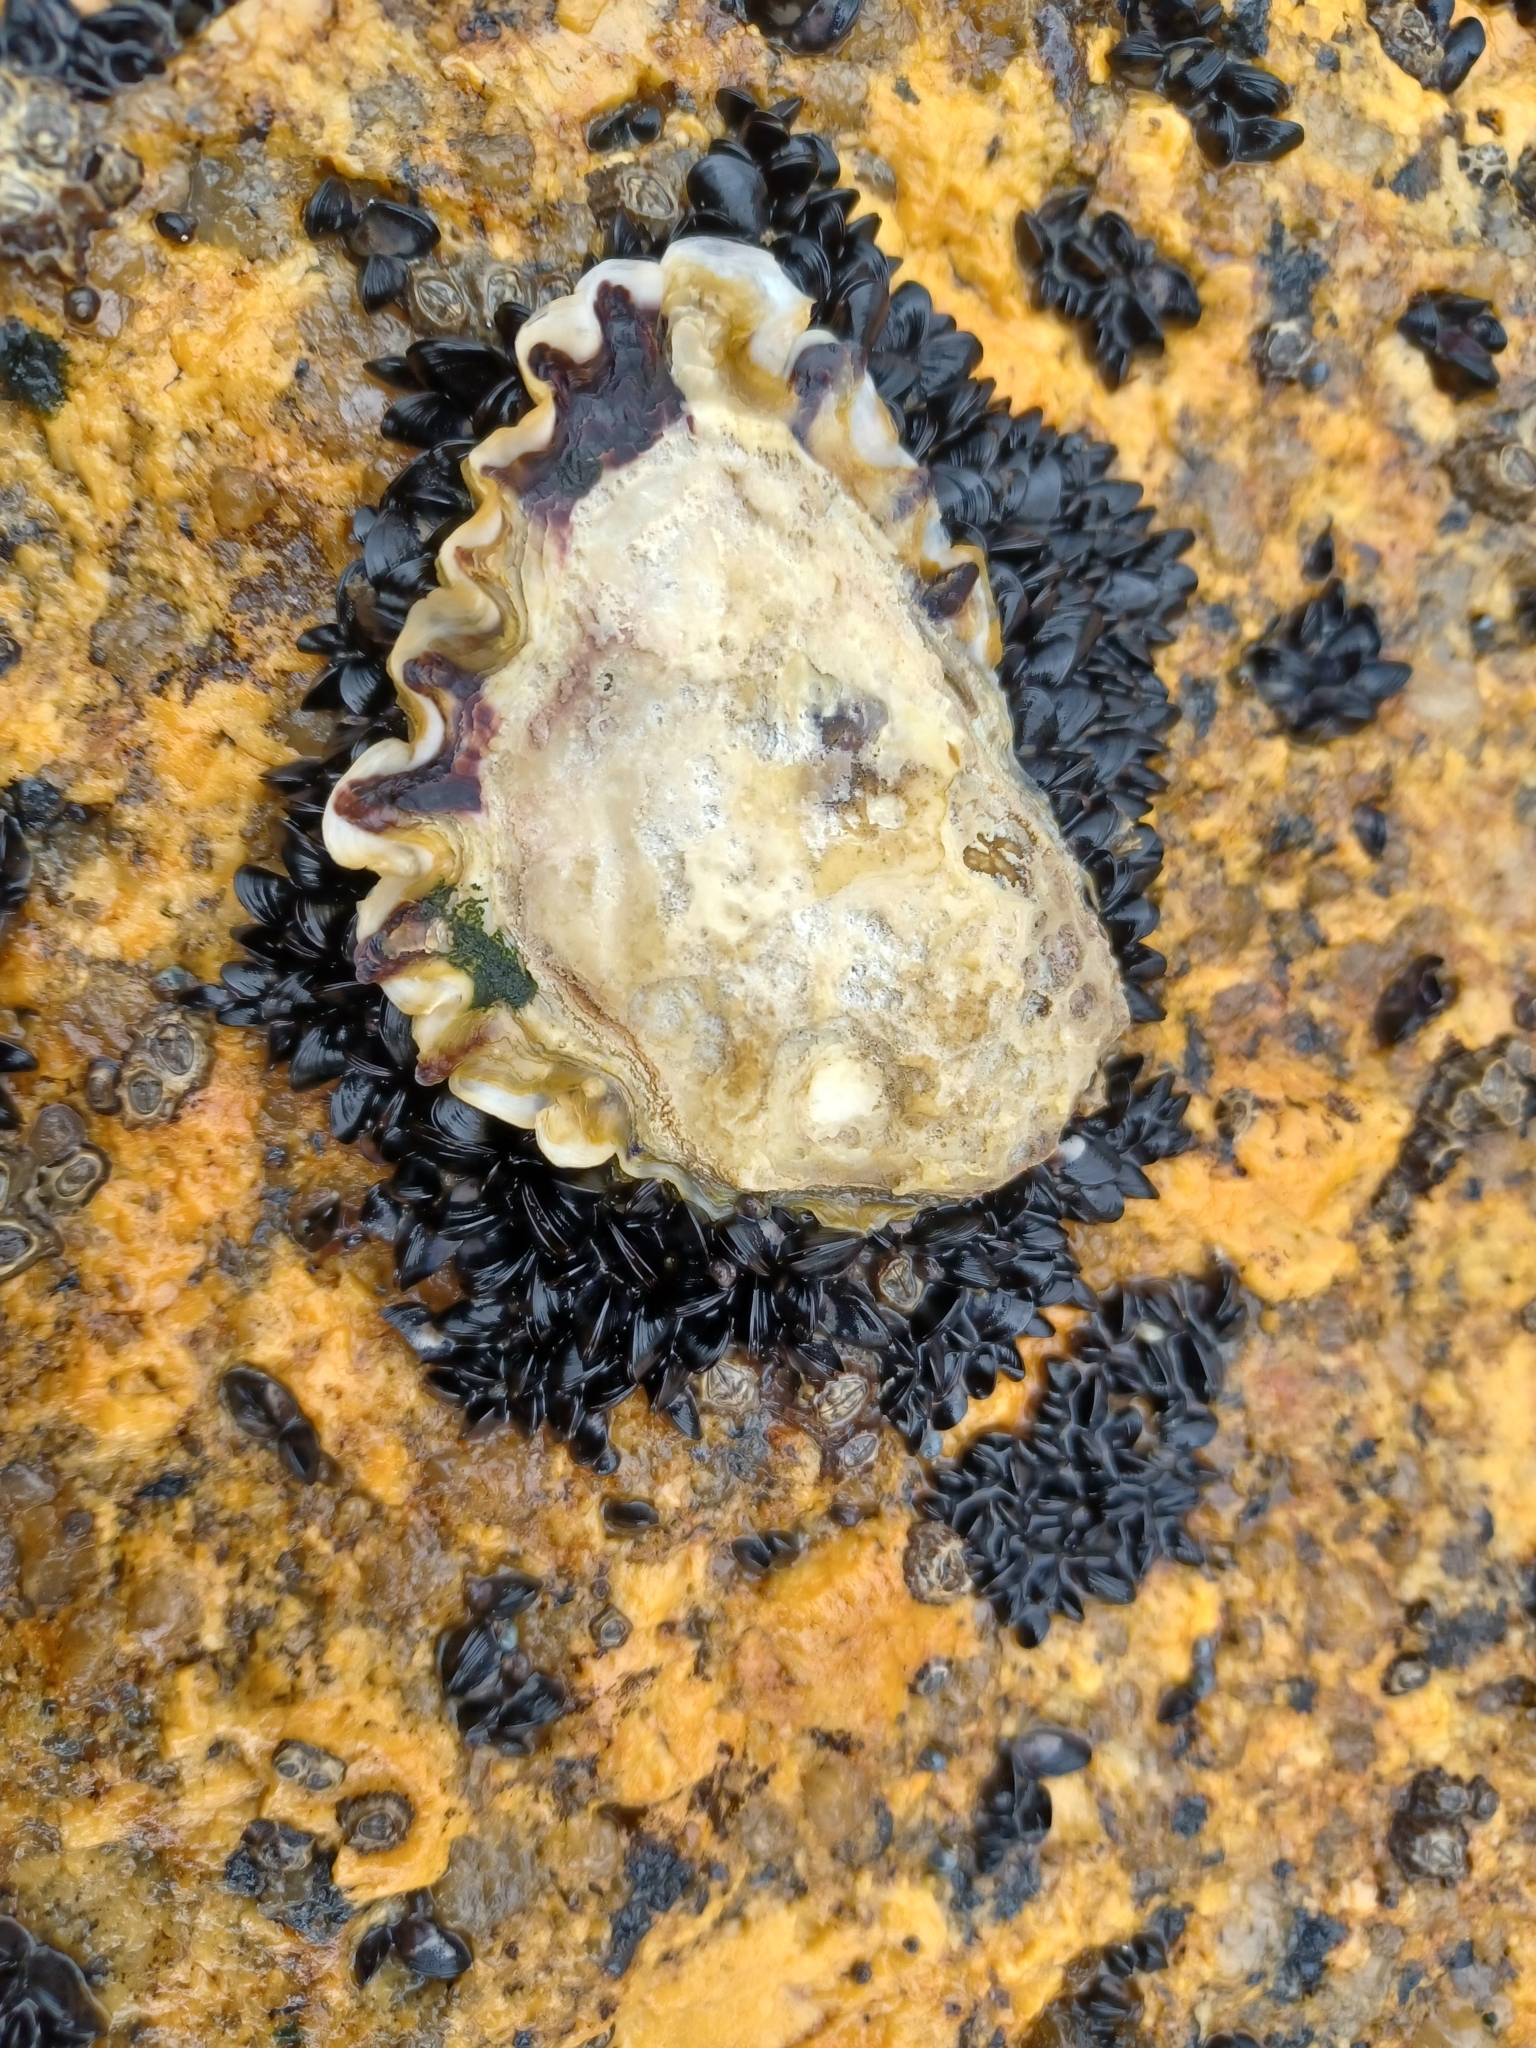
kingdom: Animalia
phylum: Mollusca
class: Bivalvia
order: Ostreida
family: Ostreidae
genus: Magallana
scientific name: Magallana gigas
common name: Pacific oyster
